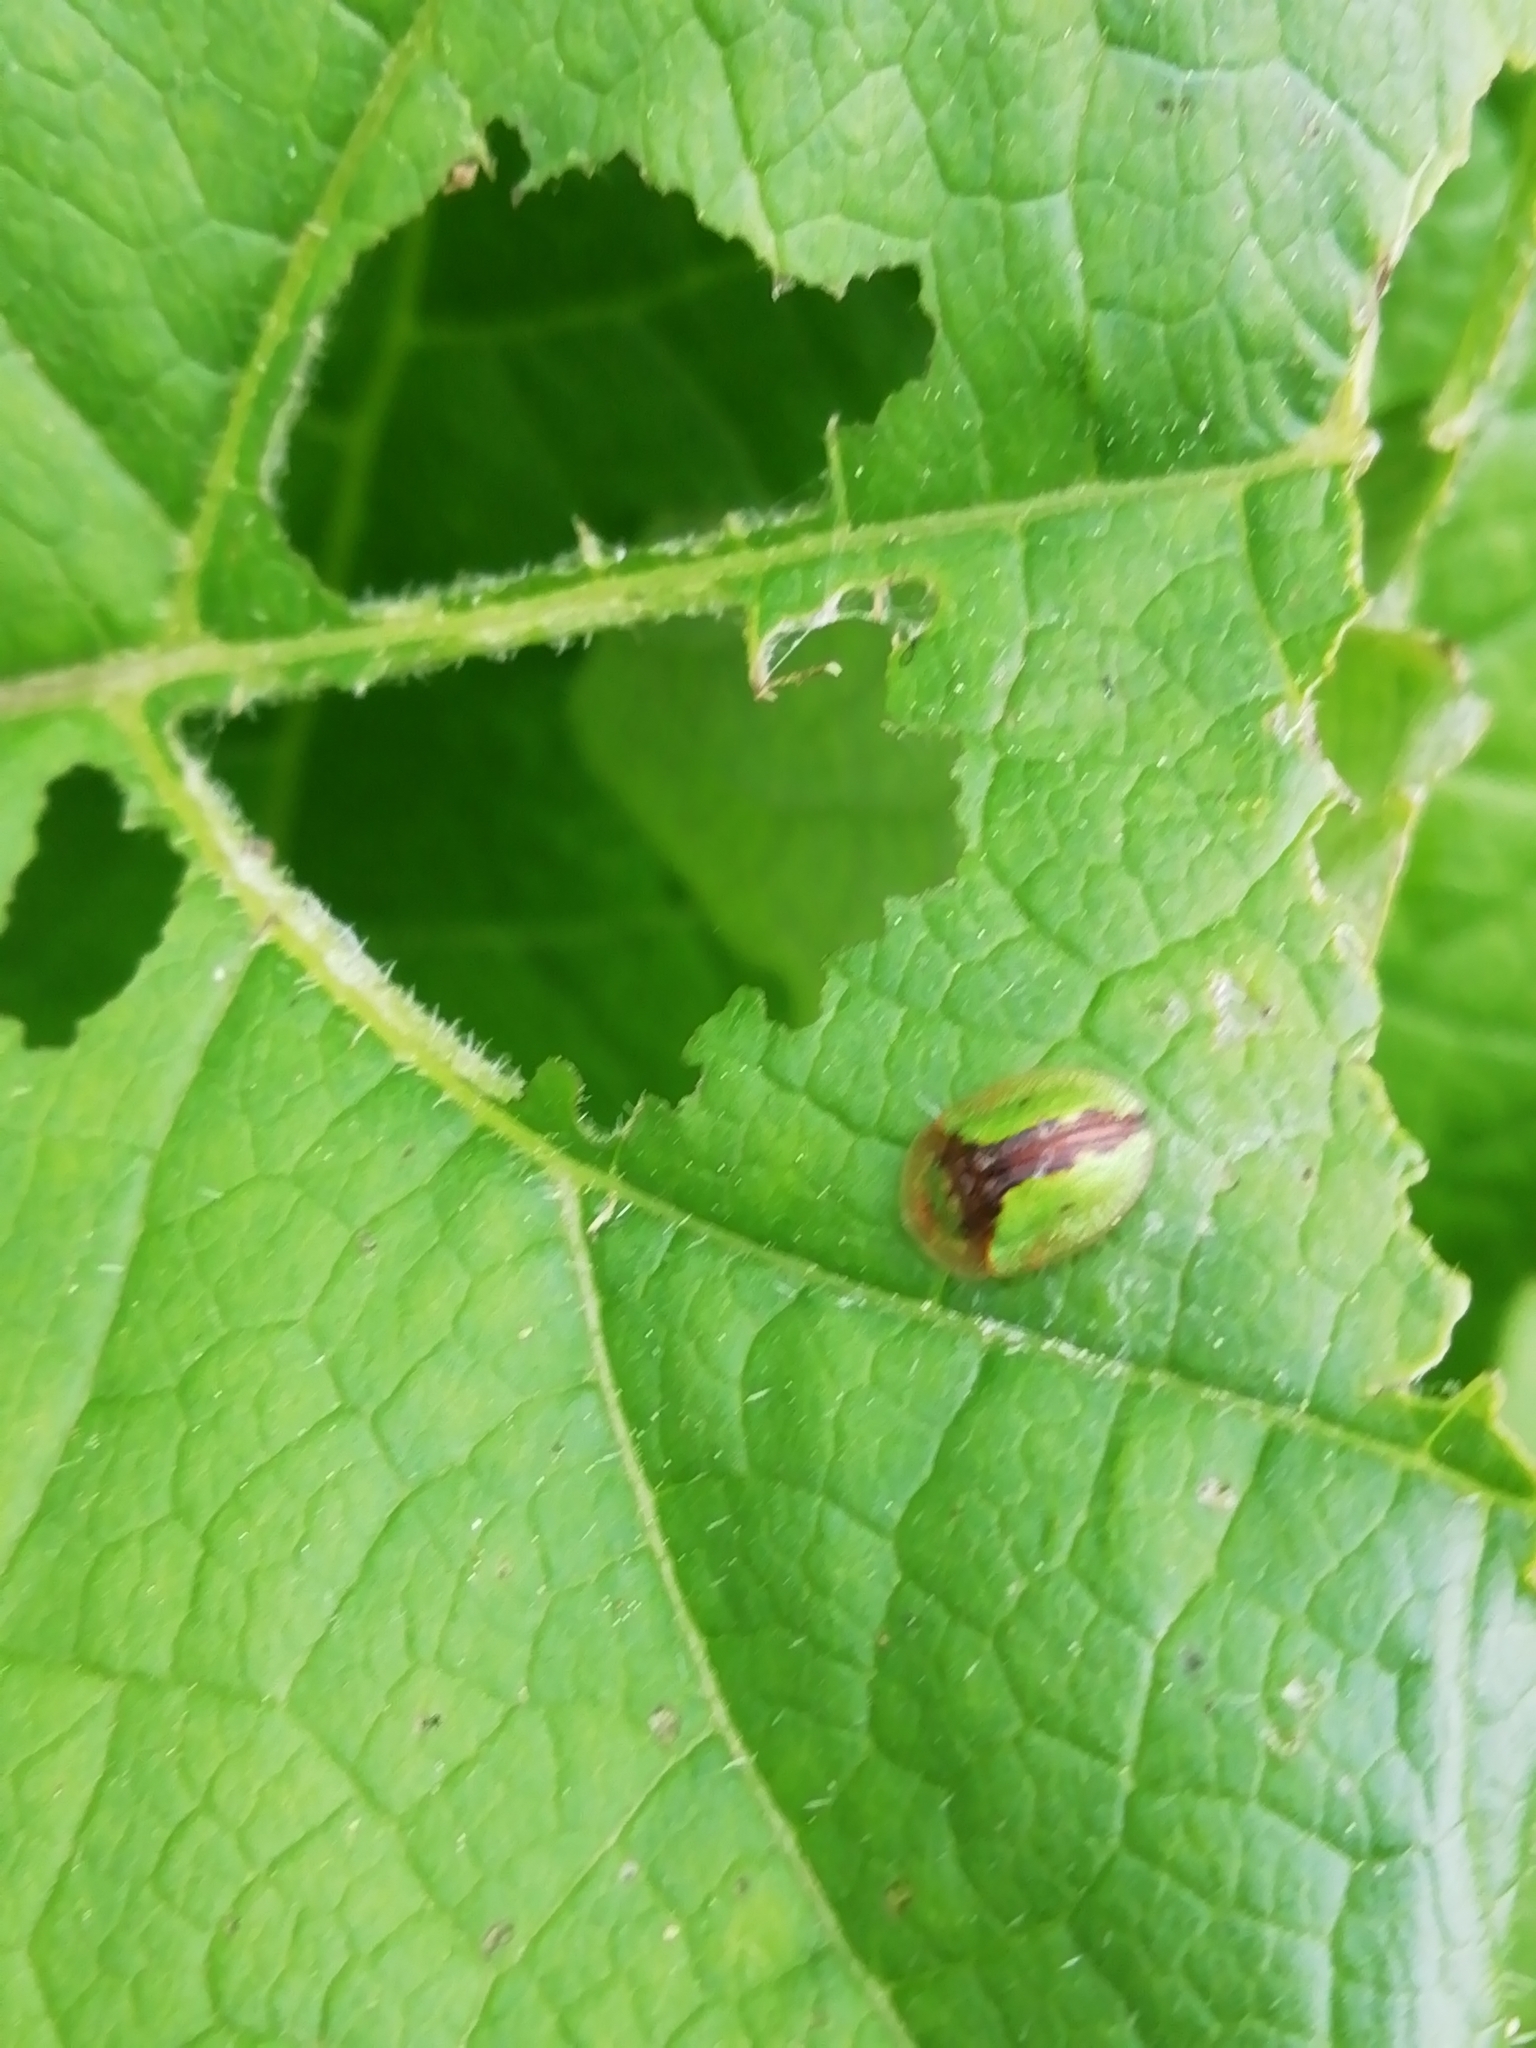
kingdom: Animalia
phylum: Arthropoda
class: Insecta
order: Coleoptera
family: Chrysomelidae
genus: Cassida
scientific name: Cassida vibex
